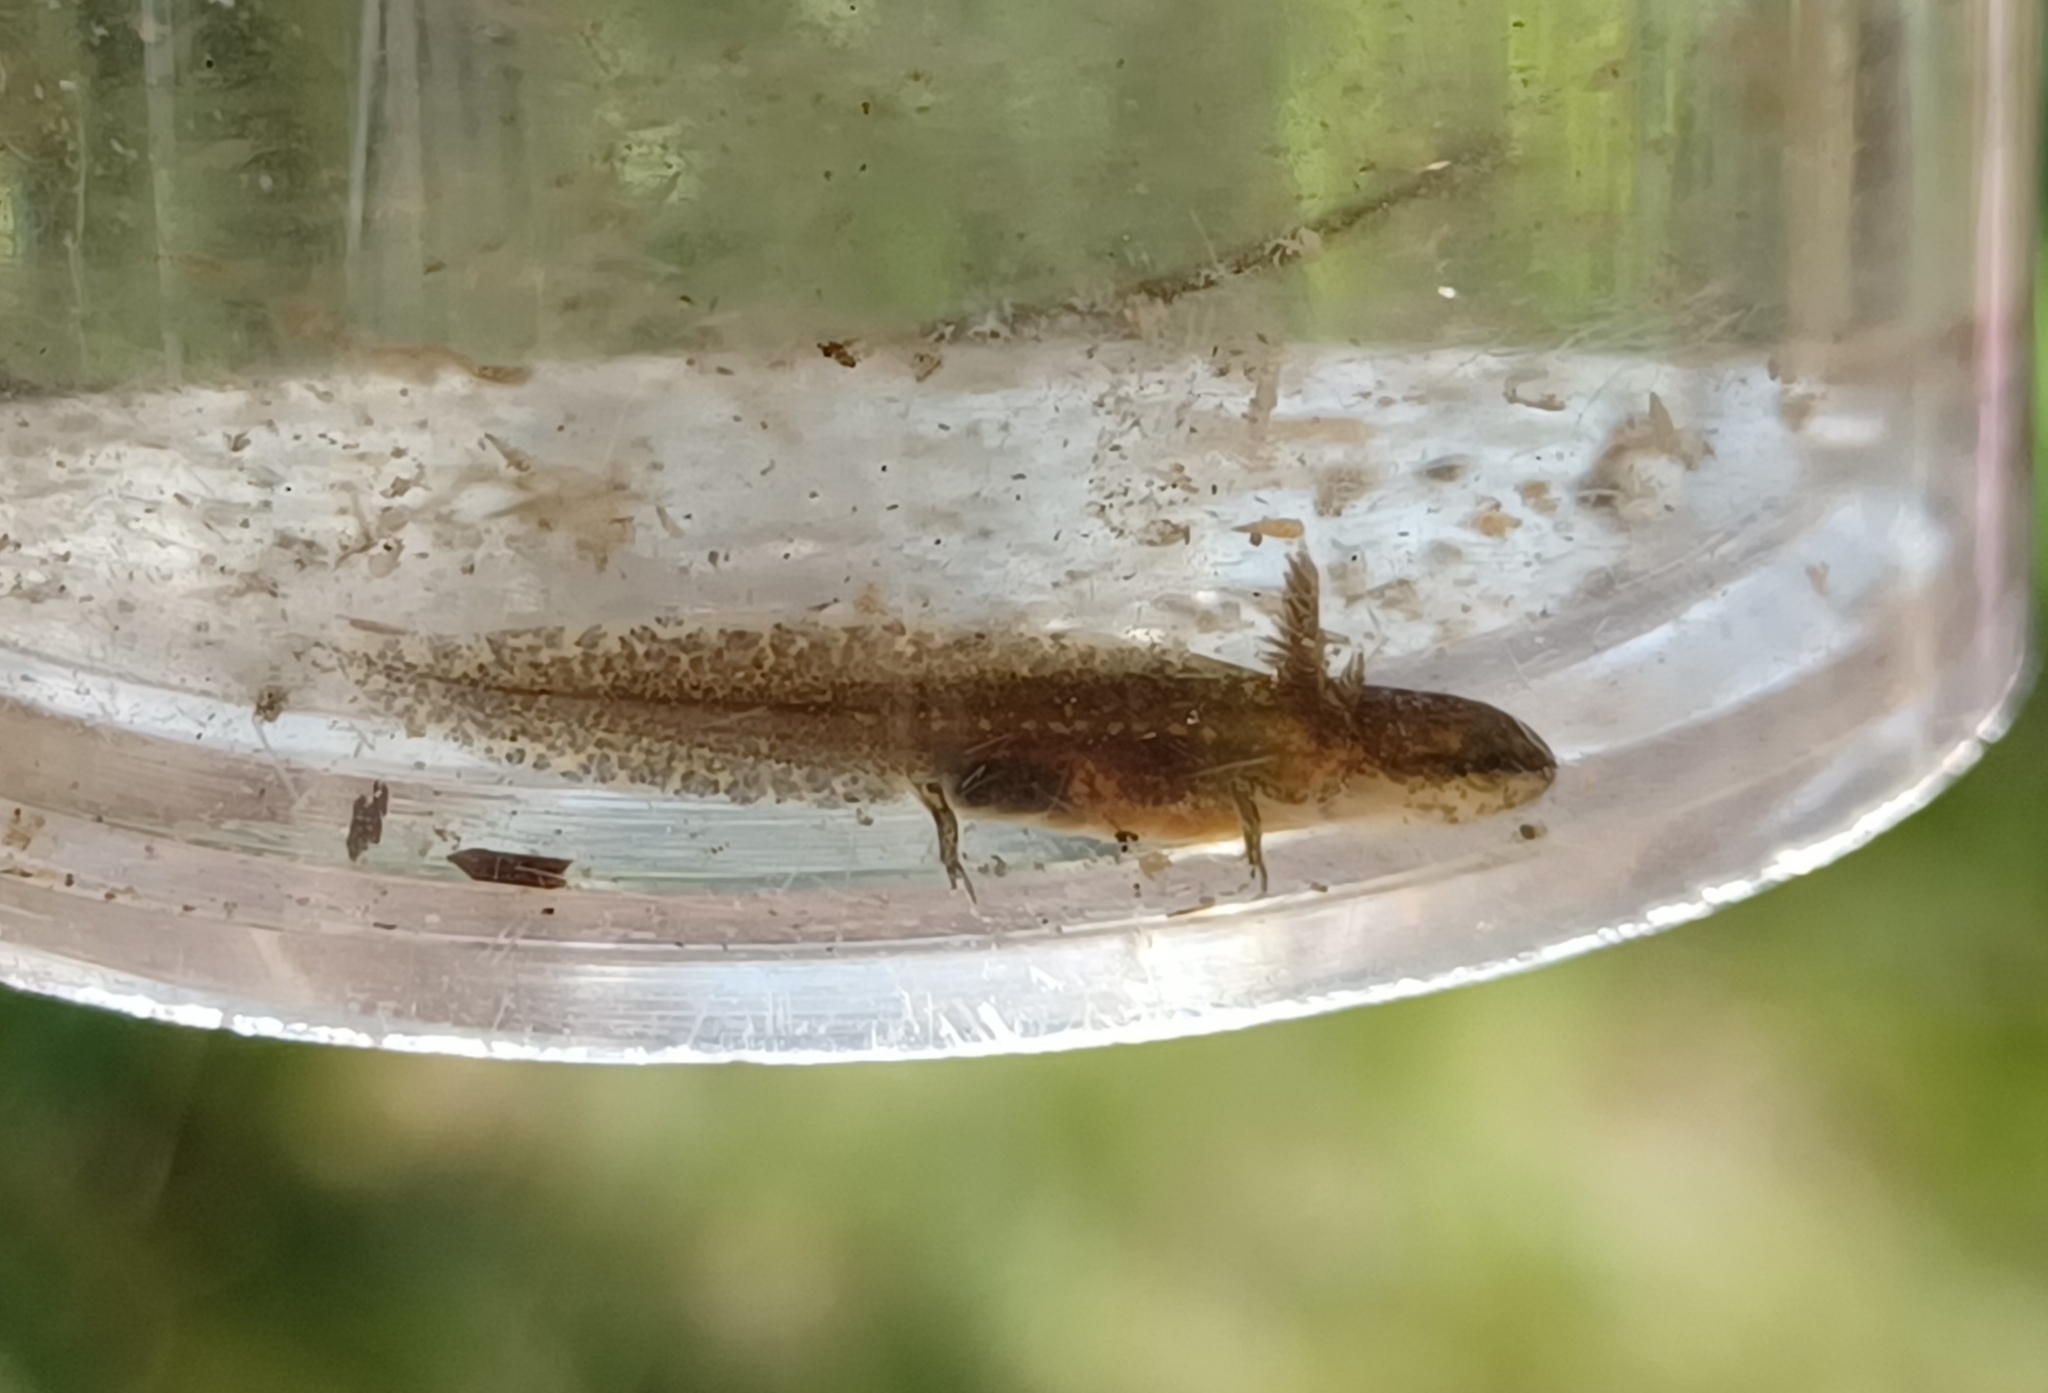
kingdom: Animalia
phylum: Chordata
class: Amphibia
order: Caudata
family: Salamandridae
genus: Notophthalmus
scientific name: Notophthalmus viridescens
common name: Eastern newt
